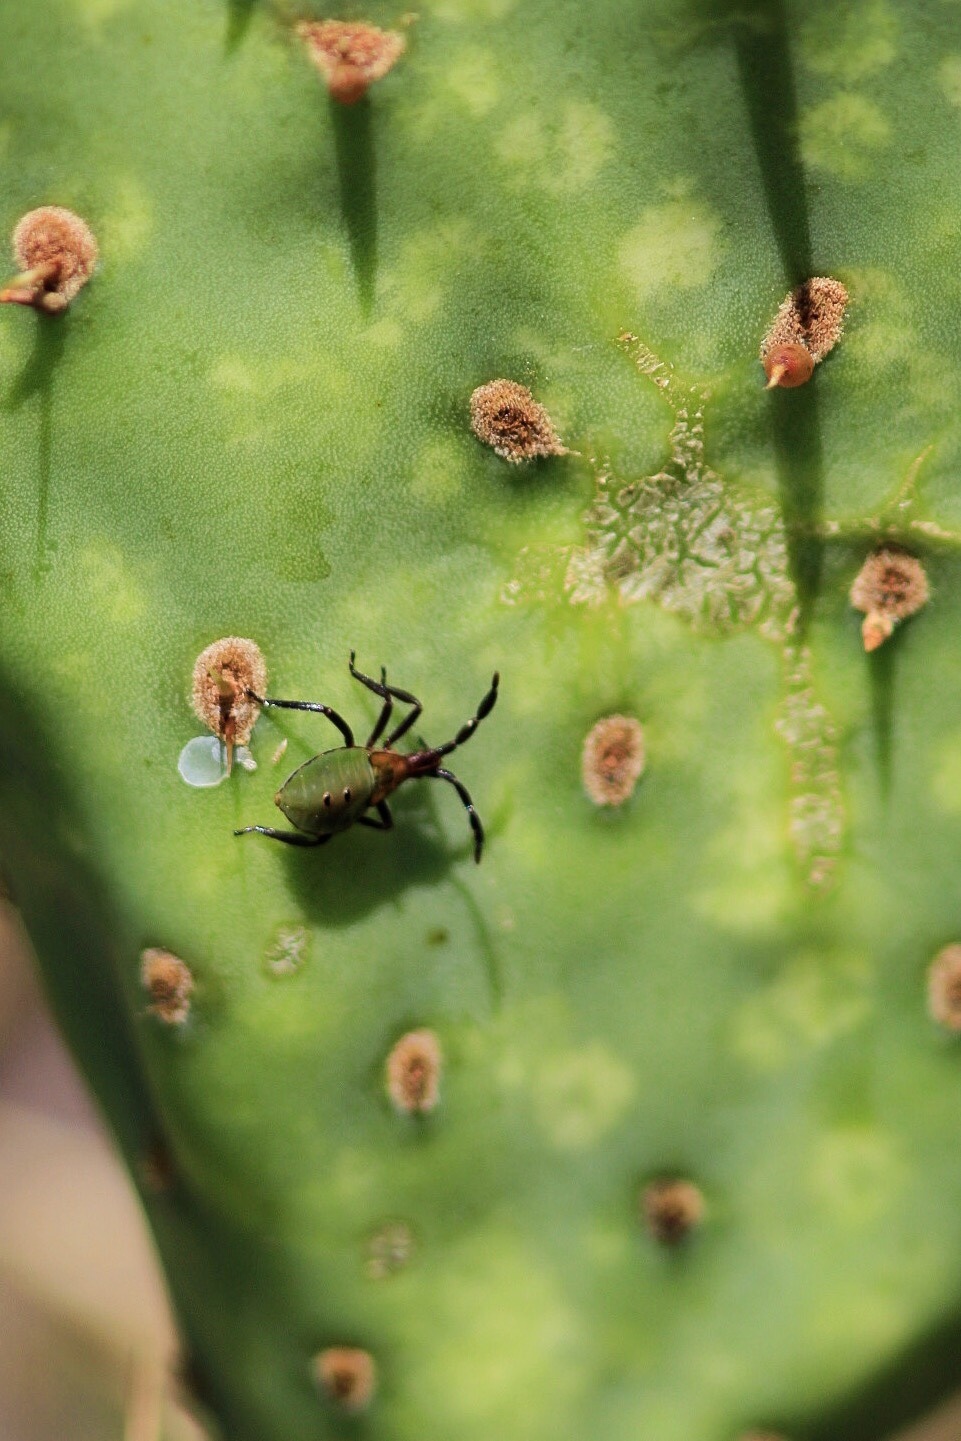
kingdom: Animalia
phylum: Arthropoda
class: Insecta
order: Hemiptera
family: Coreidae
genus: Chelinidea
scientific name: Chelinidea vittiger
